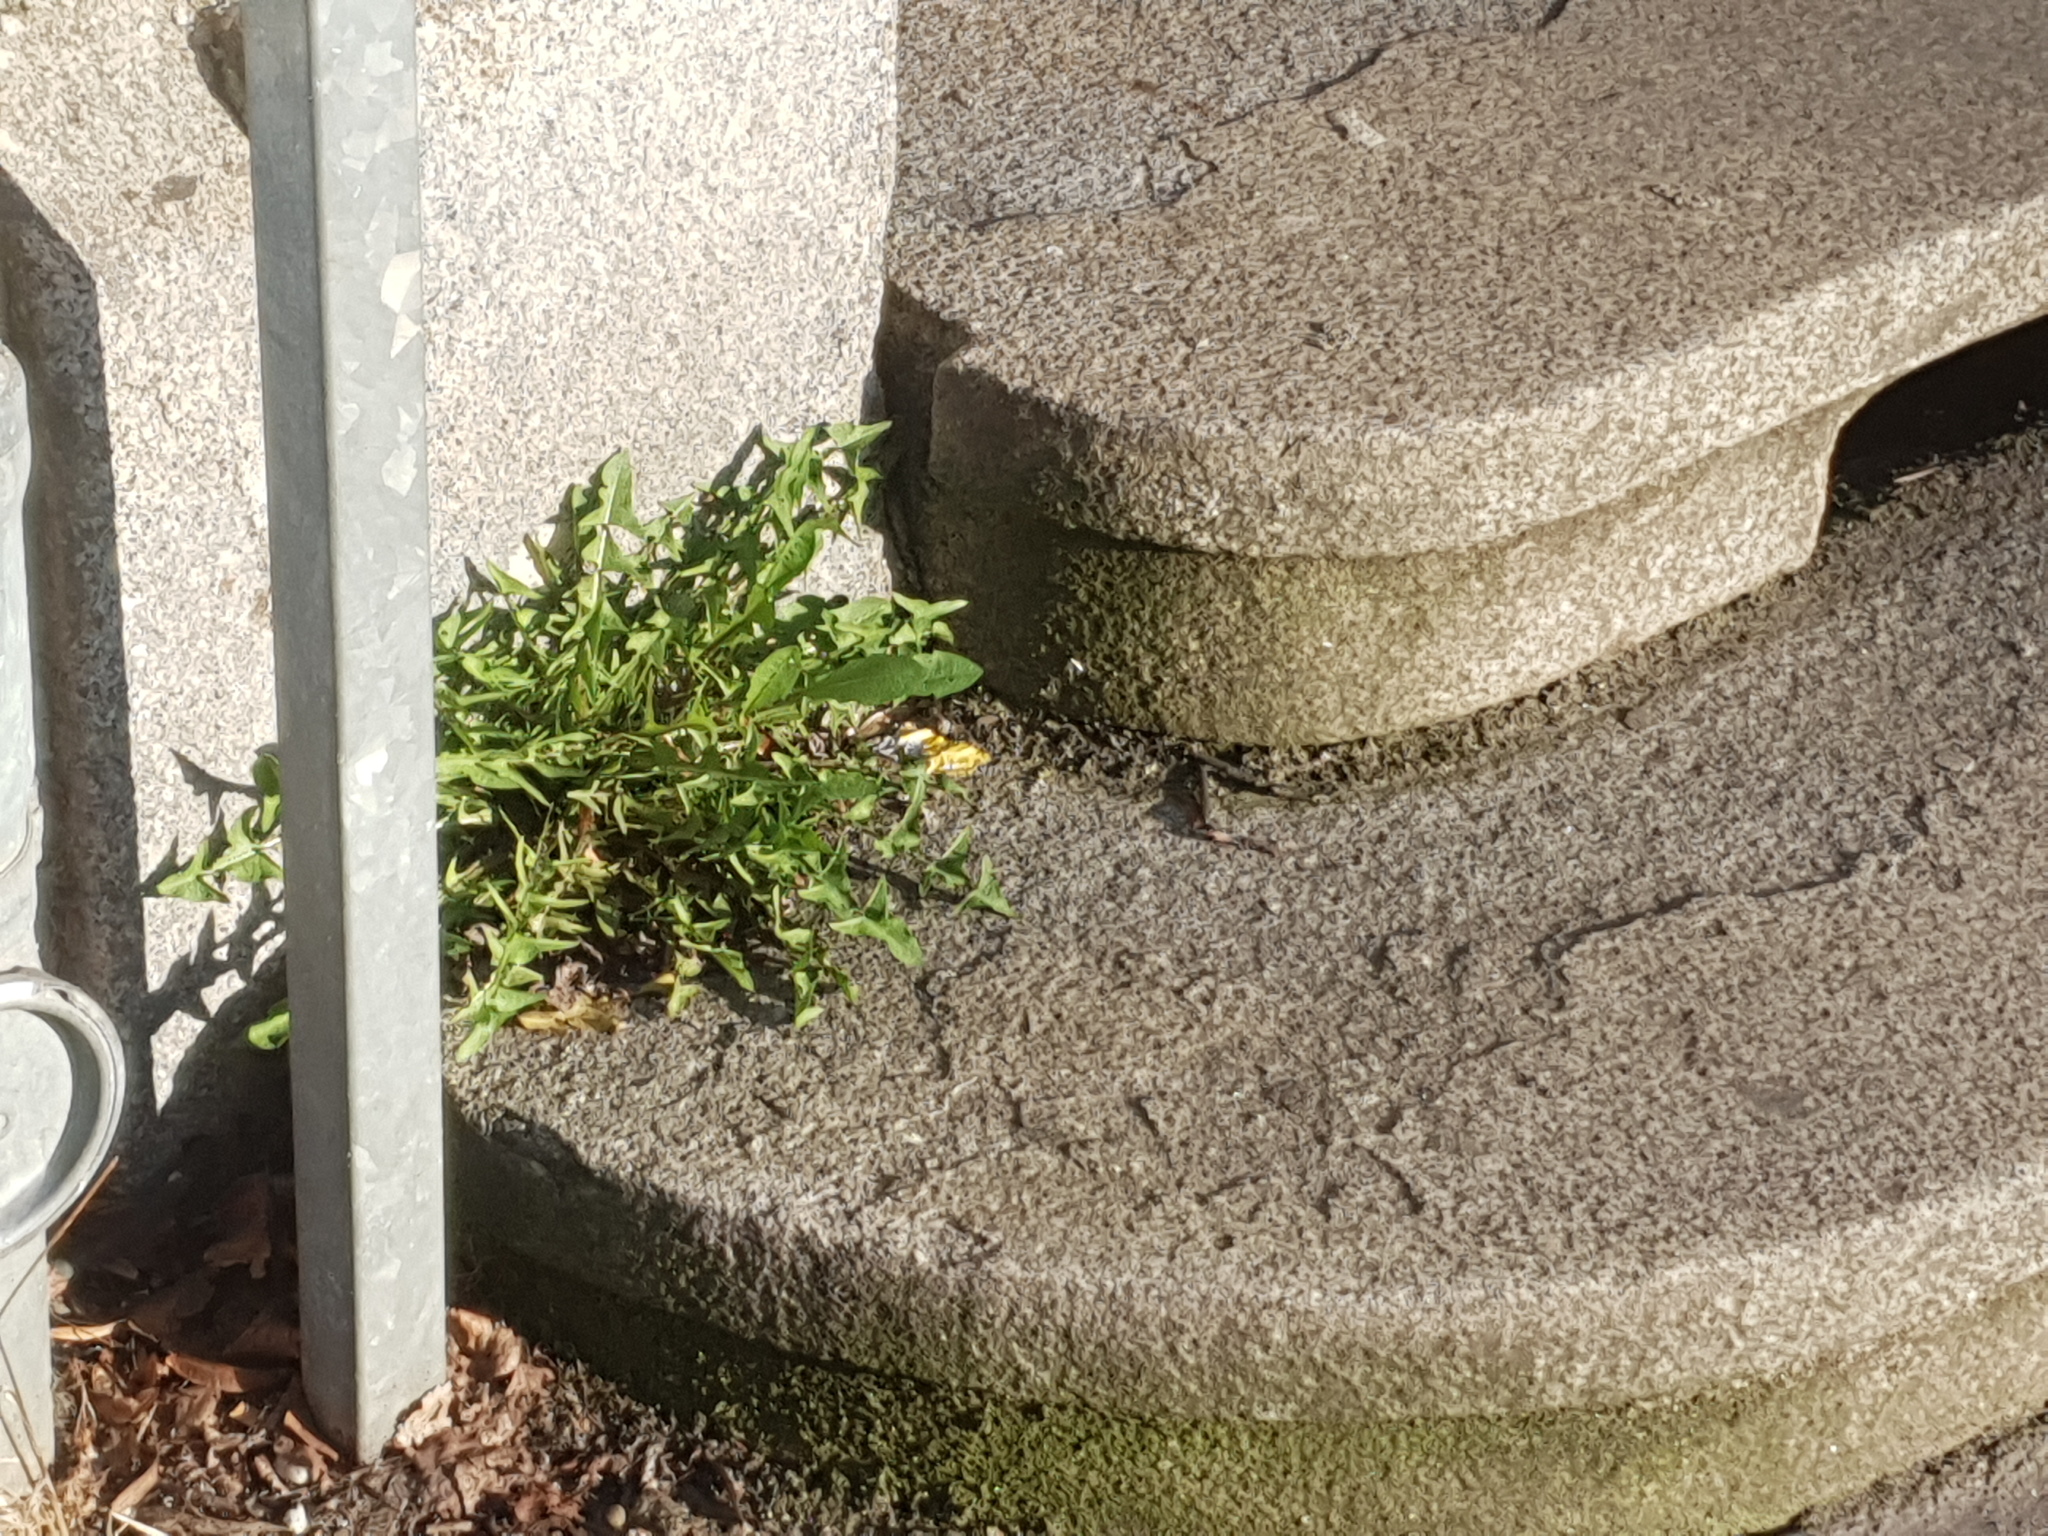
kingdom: Plantae
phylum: Tracheophyta
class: Magnoliopsida
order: Asterales
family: Asteraceae
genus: Taraxacum
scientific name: Taraxacum
